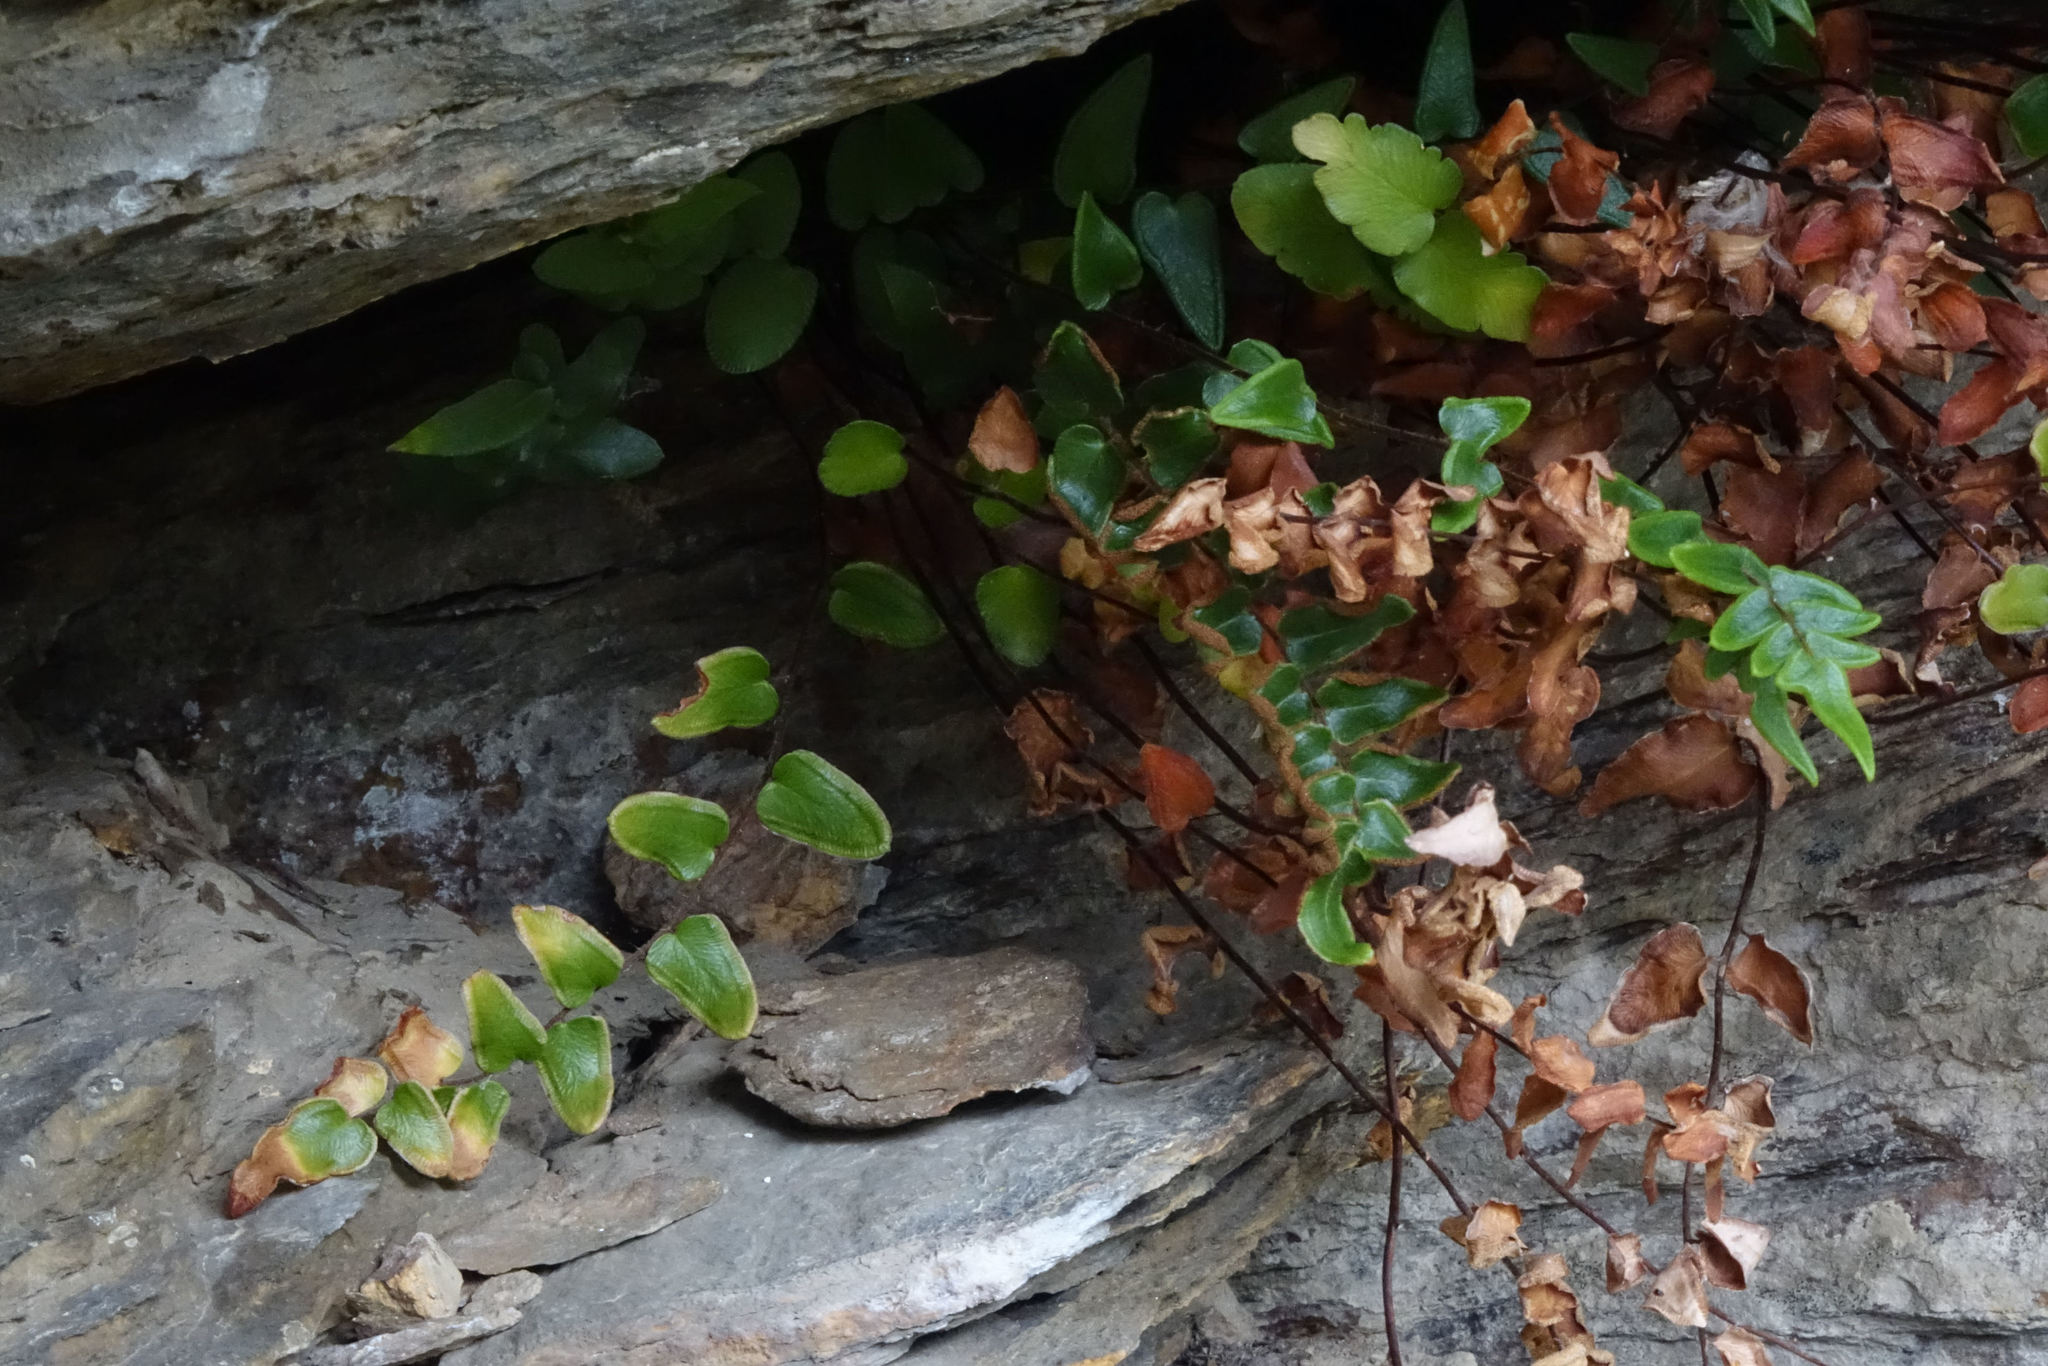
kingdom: Plantae
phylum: Tracheophyta
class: Polypodiopsida
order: Polypodiales
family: Pteridaceae
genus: Pellaea
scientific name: Pellaea calidirupium
